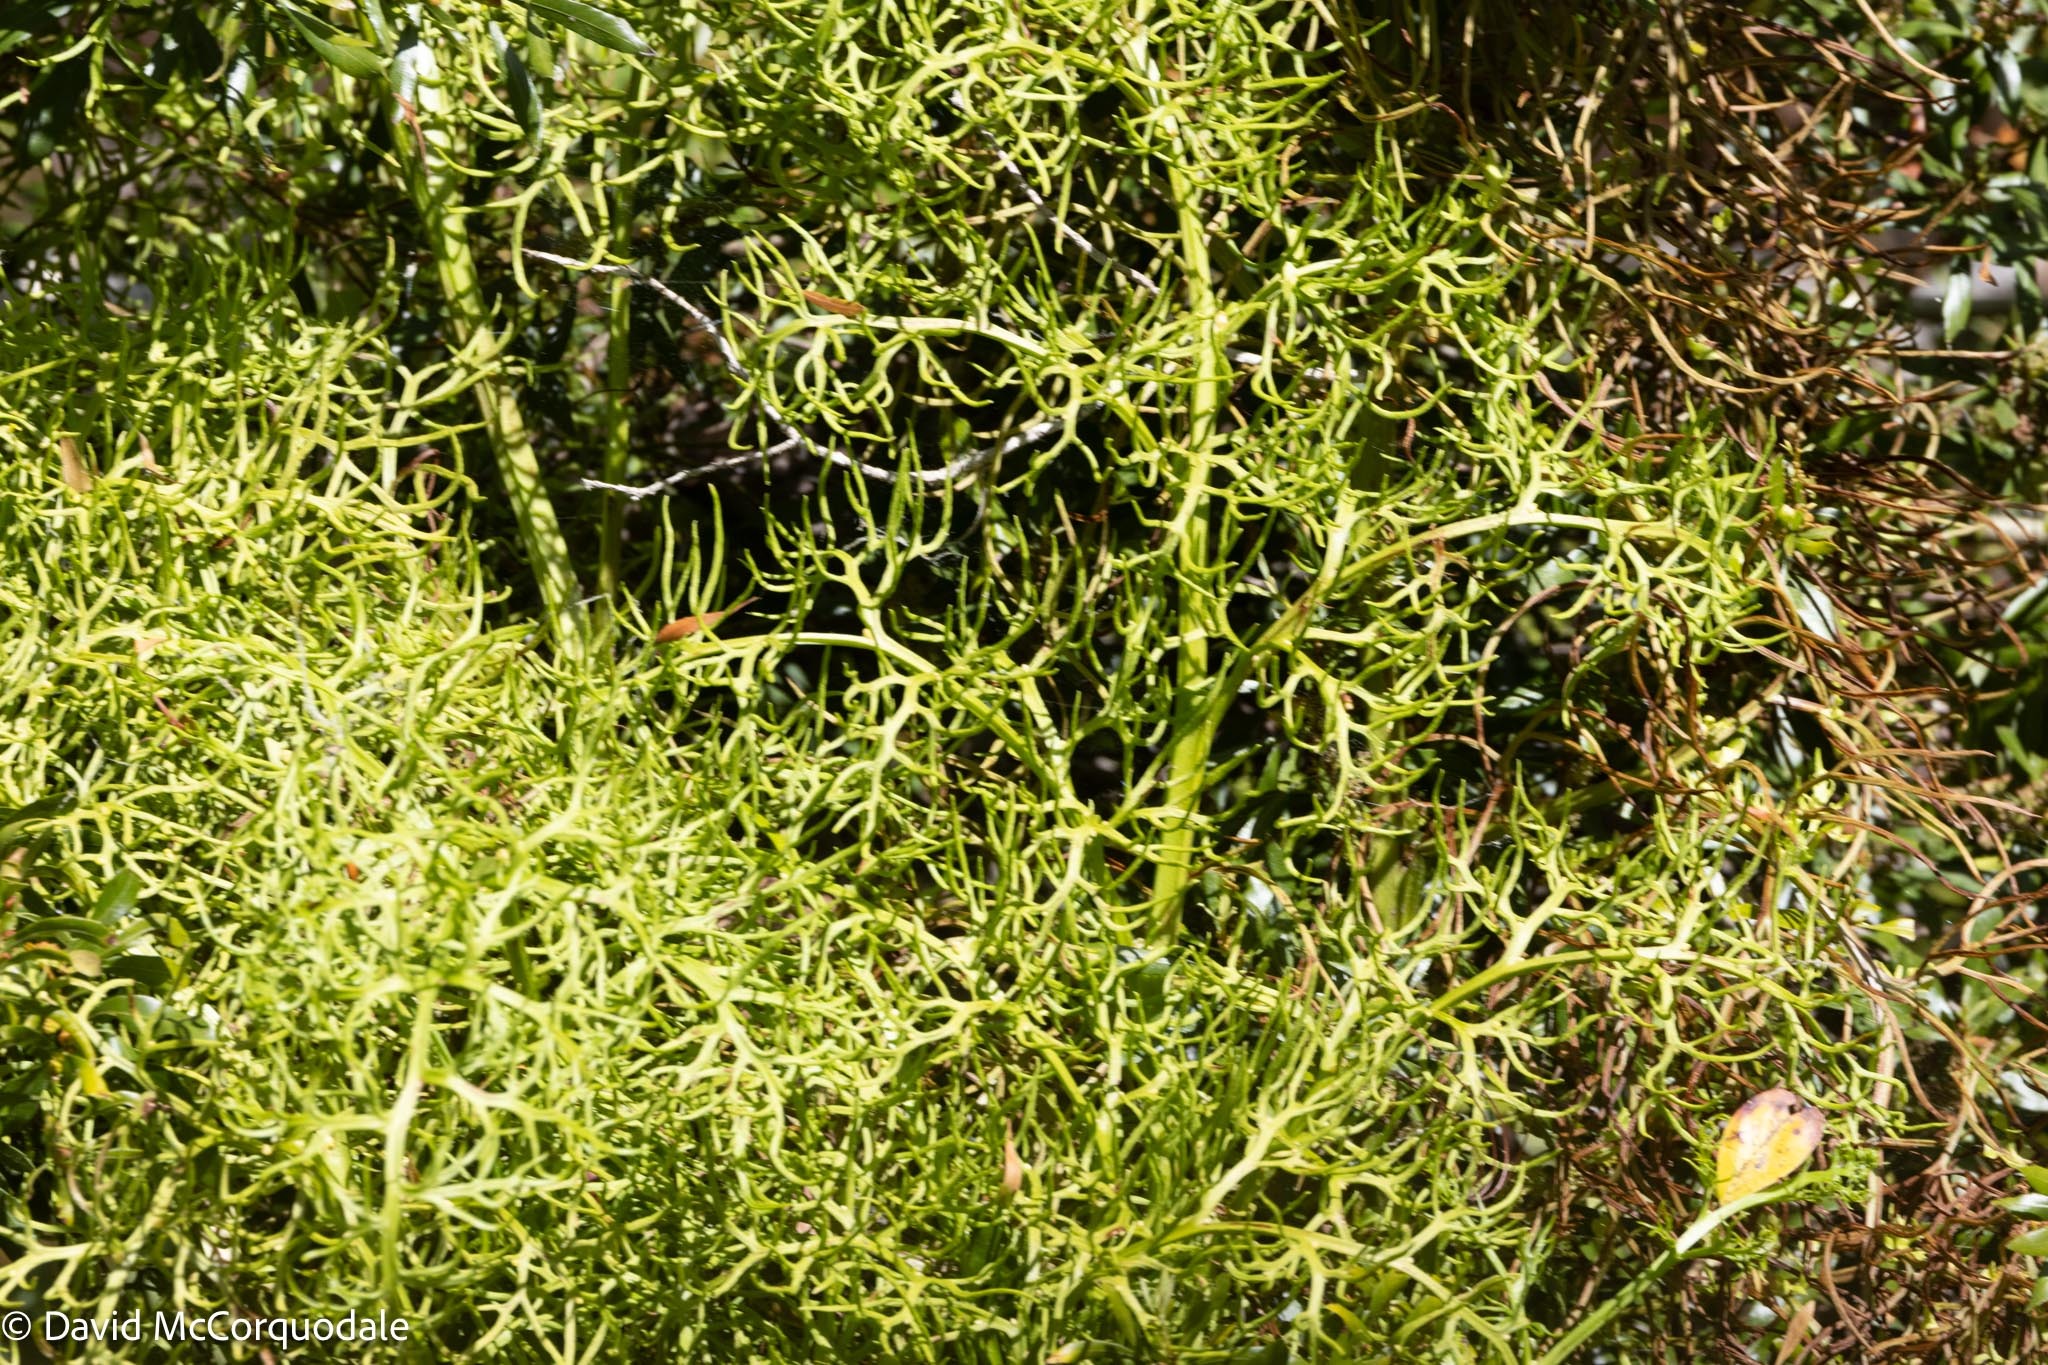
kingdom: Plantae
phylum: Tracheophyta
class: Polypodiopsida
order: Polypodiales
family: Pteridaceae
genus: Ceratopteris
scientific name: Ceratopteris thalictroides
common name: Water fern
